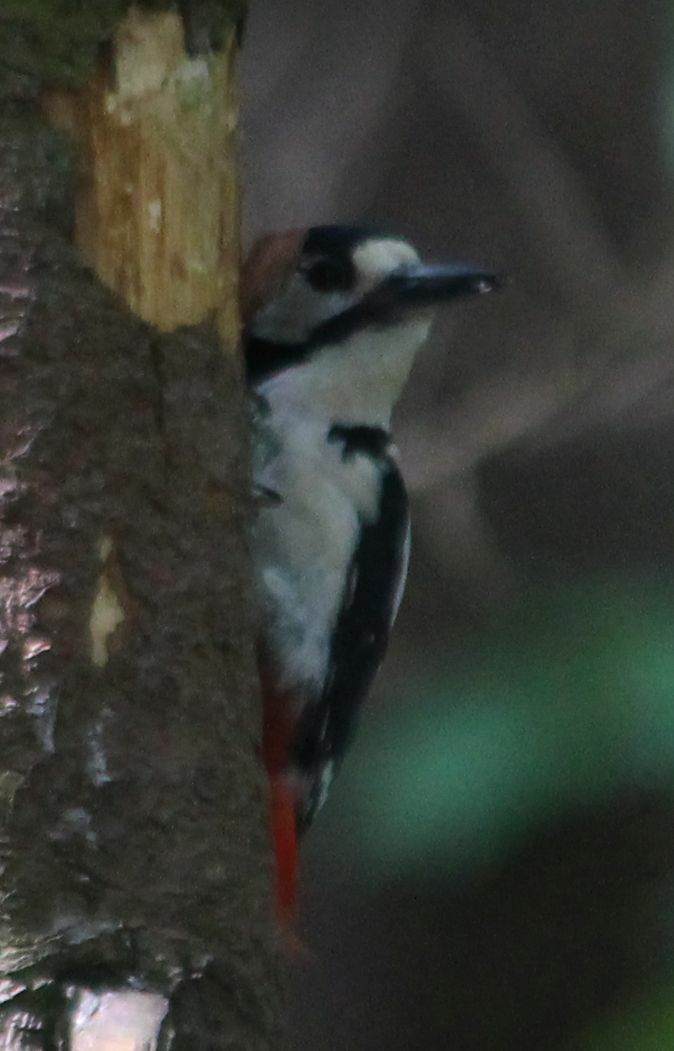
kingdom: Animalia
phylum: Chordata
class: Aves
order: Piciformes
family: Picidae
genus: Dendrocopos
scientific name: Dendrocopos major
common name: Great spotted woodpecker
